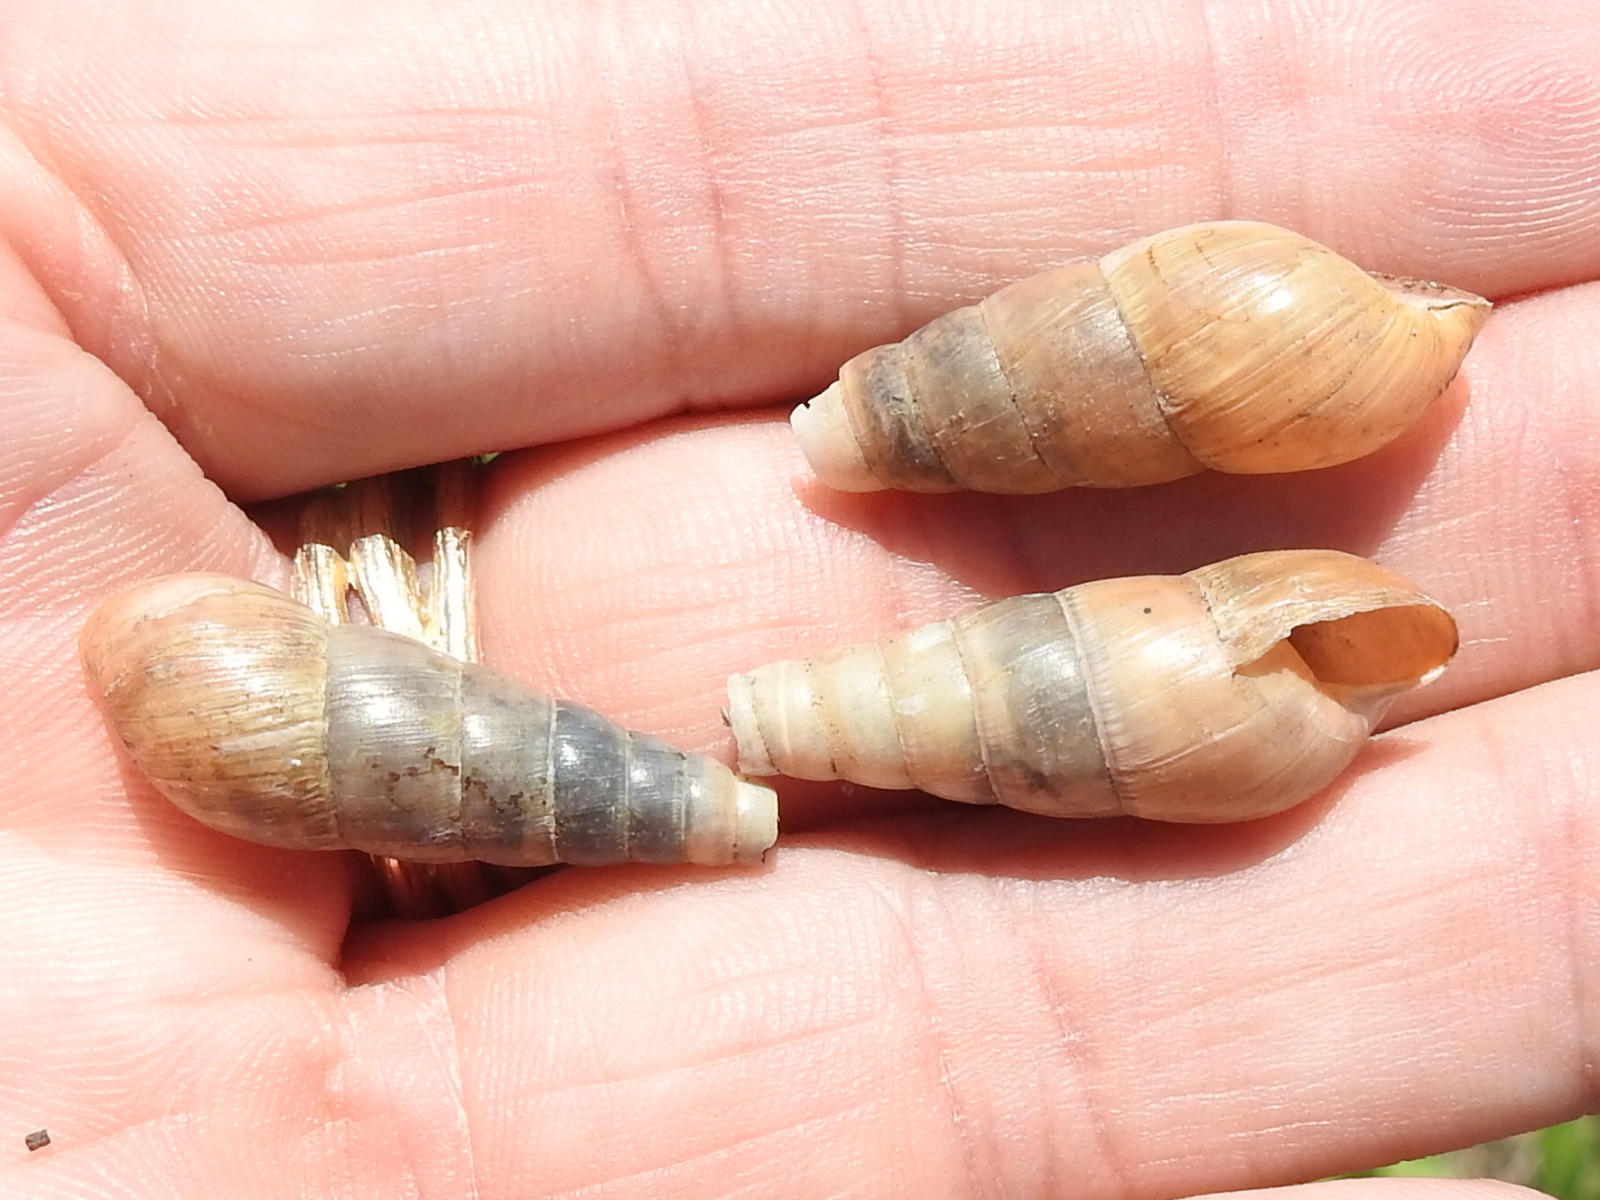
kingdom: Animalia
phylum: Mollusca
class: Gastropoda
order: Stylommatophora
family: Achatinidae
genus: Rumina
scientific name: Rumina decollata
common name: Decollate snail
